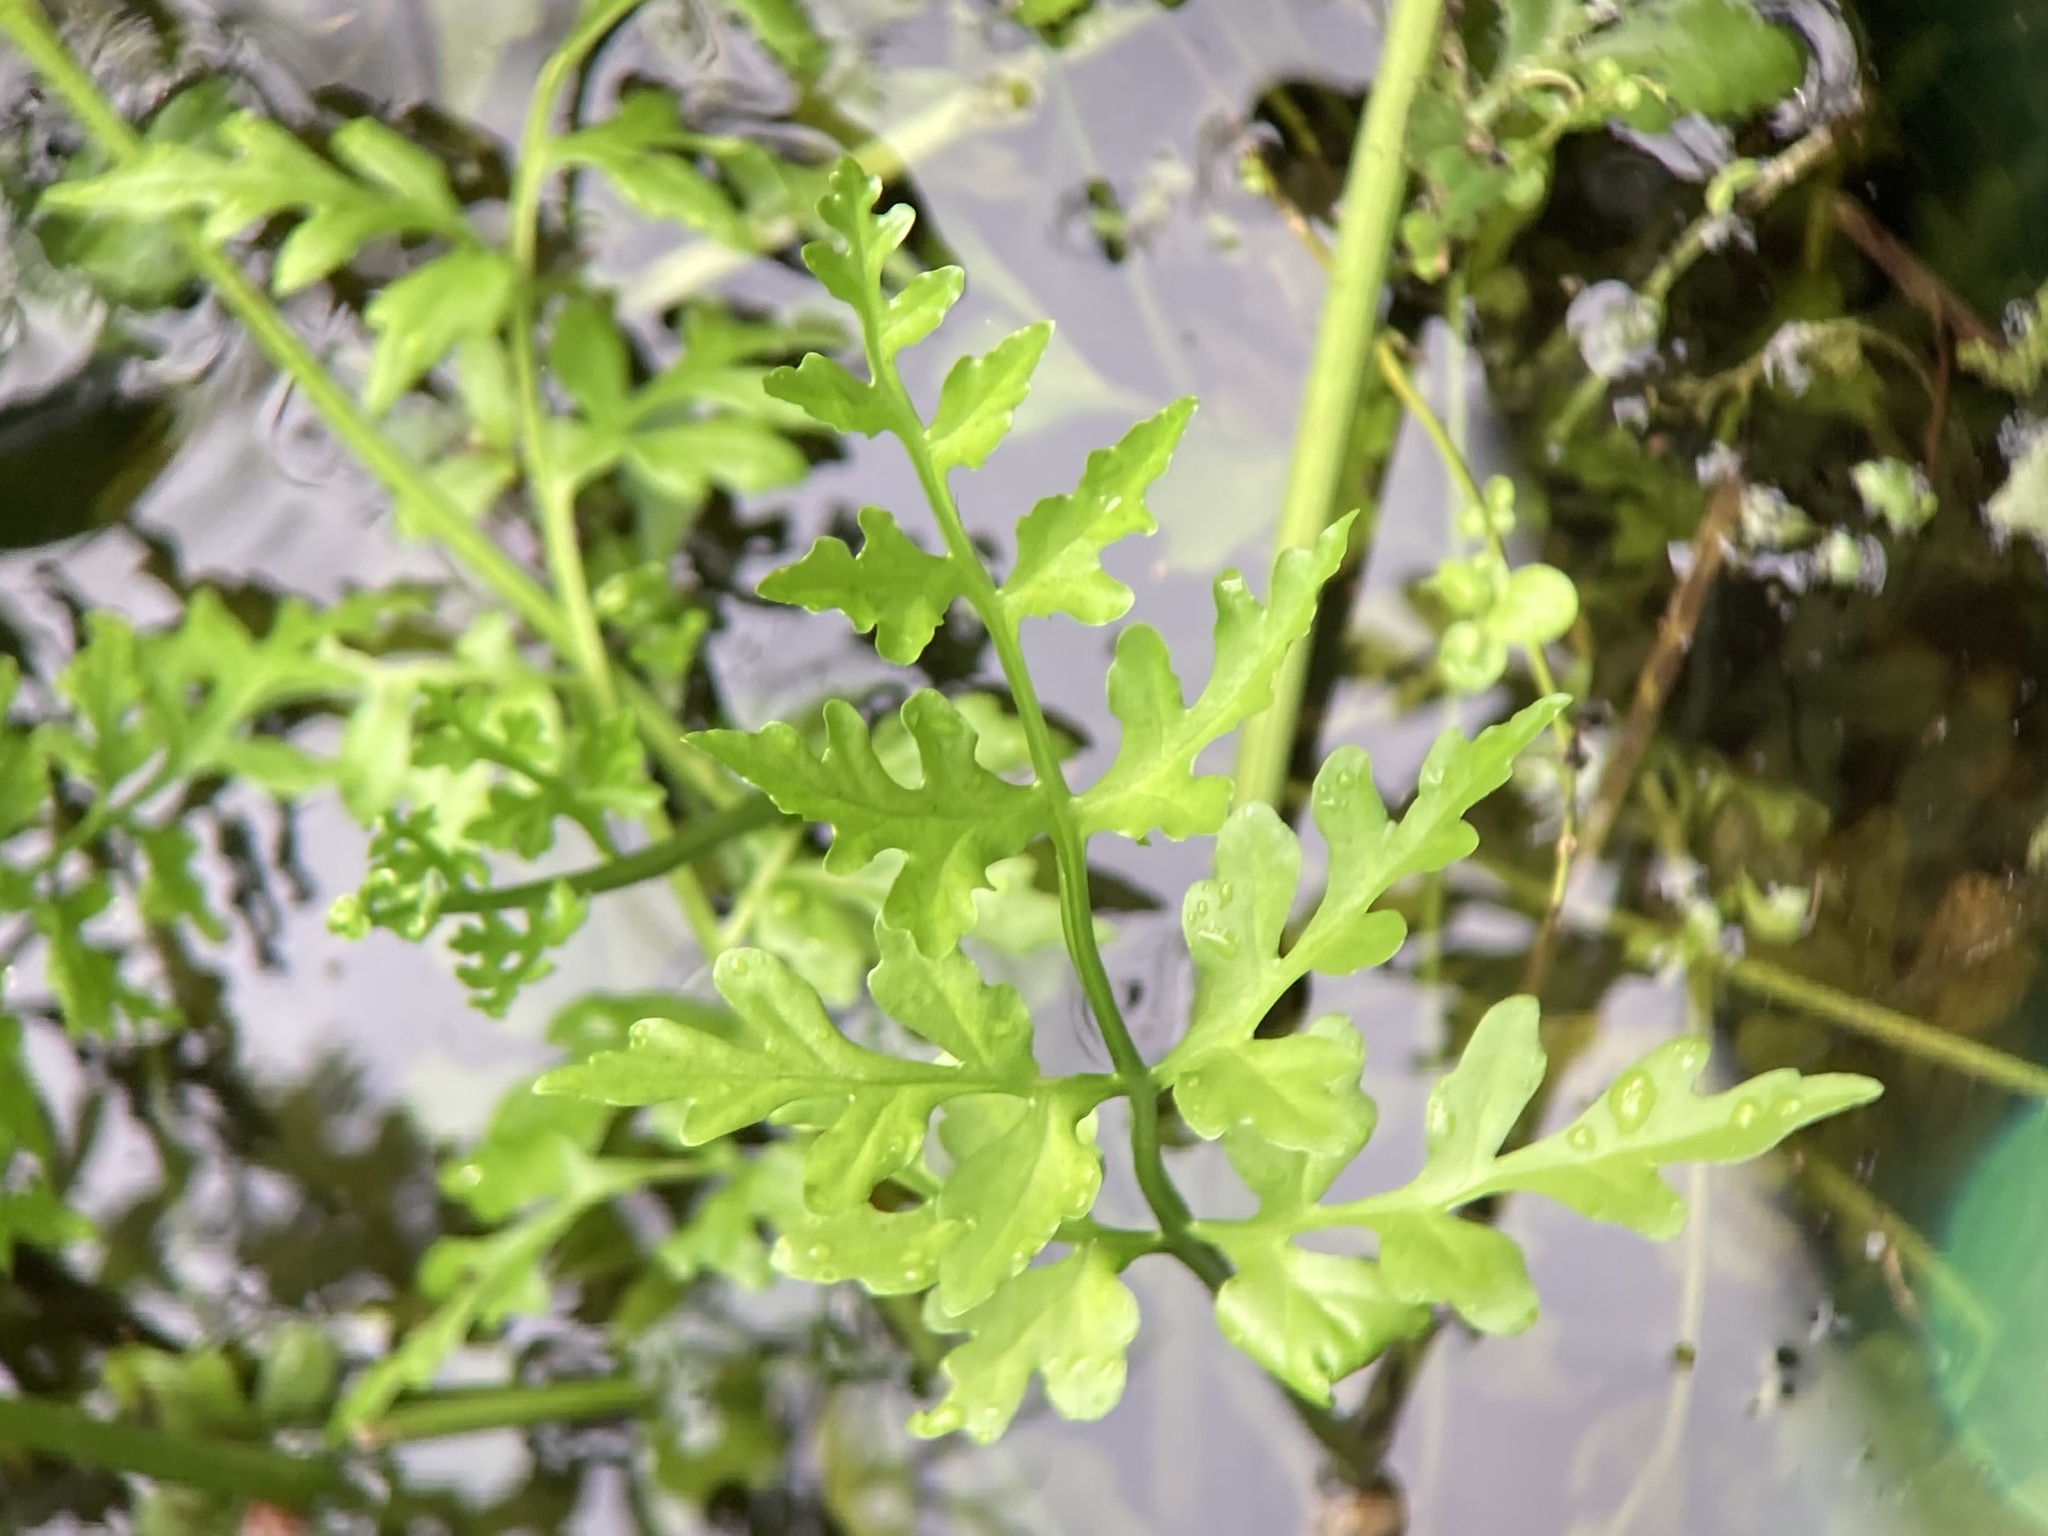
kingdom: Plantae
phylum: Tracheophyta
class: Polypodiopsida
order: Polypodiales
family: Pteridaceae
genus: Ceratopteris
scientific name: Ceratopteris thalictroides
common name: Water fern
